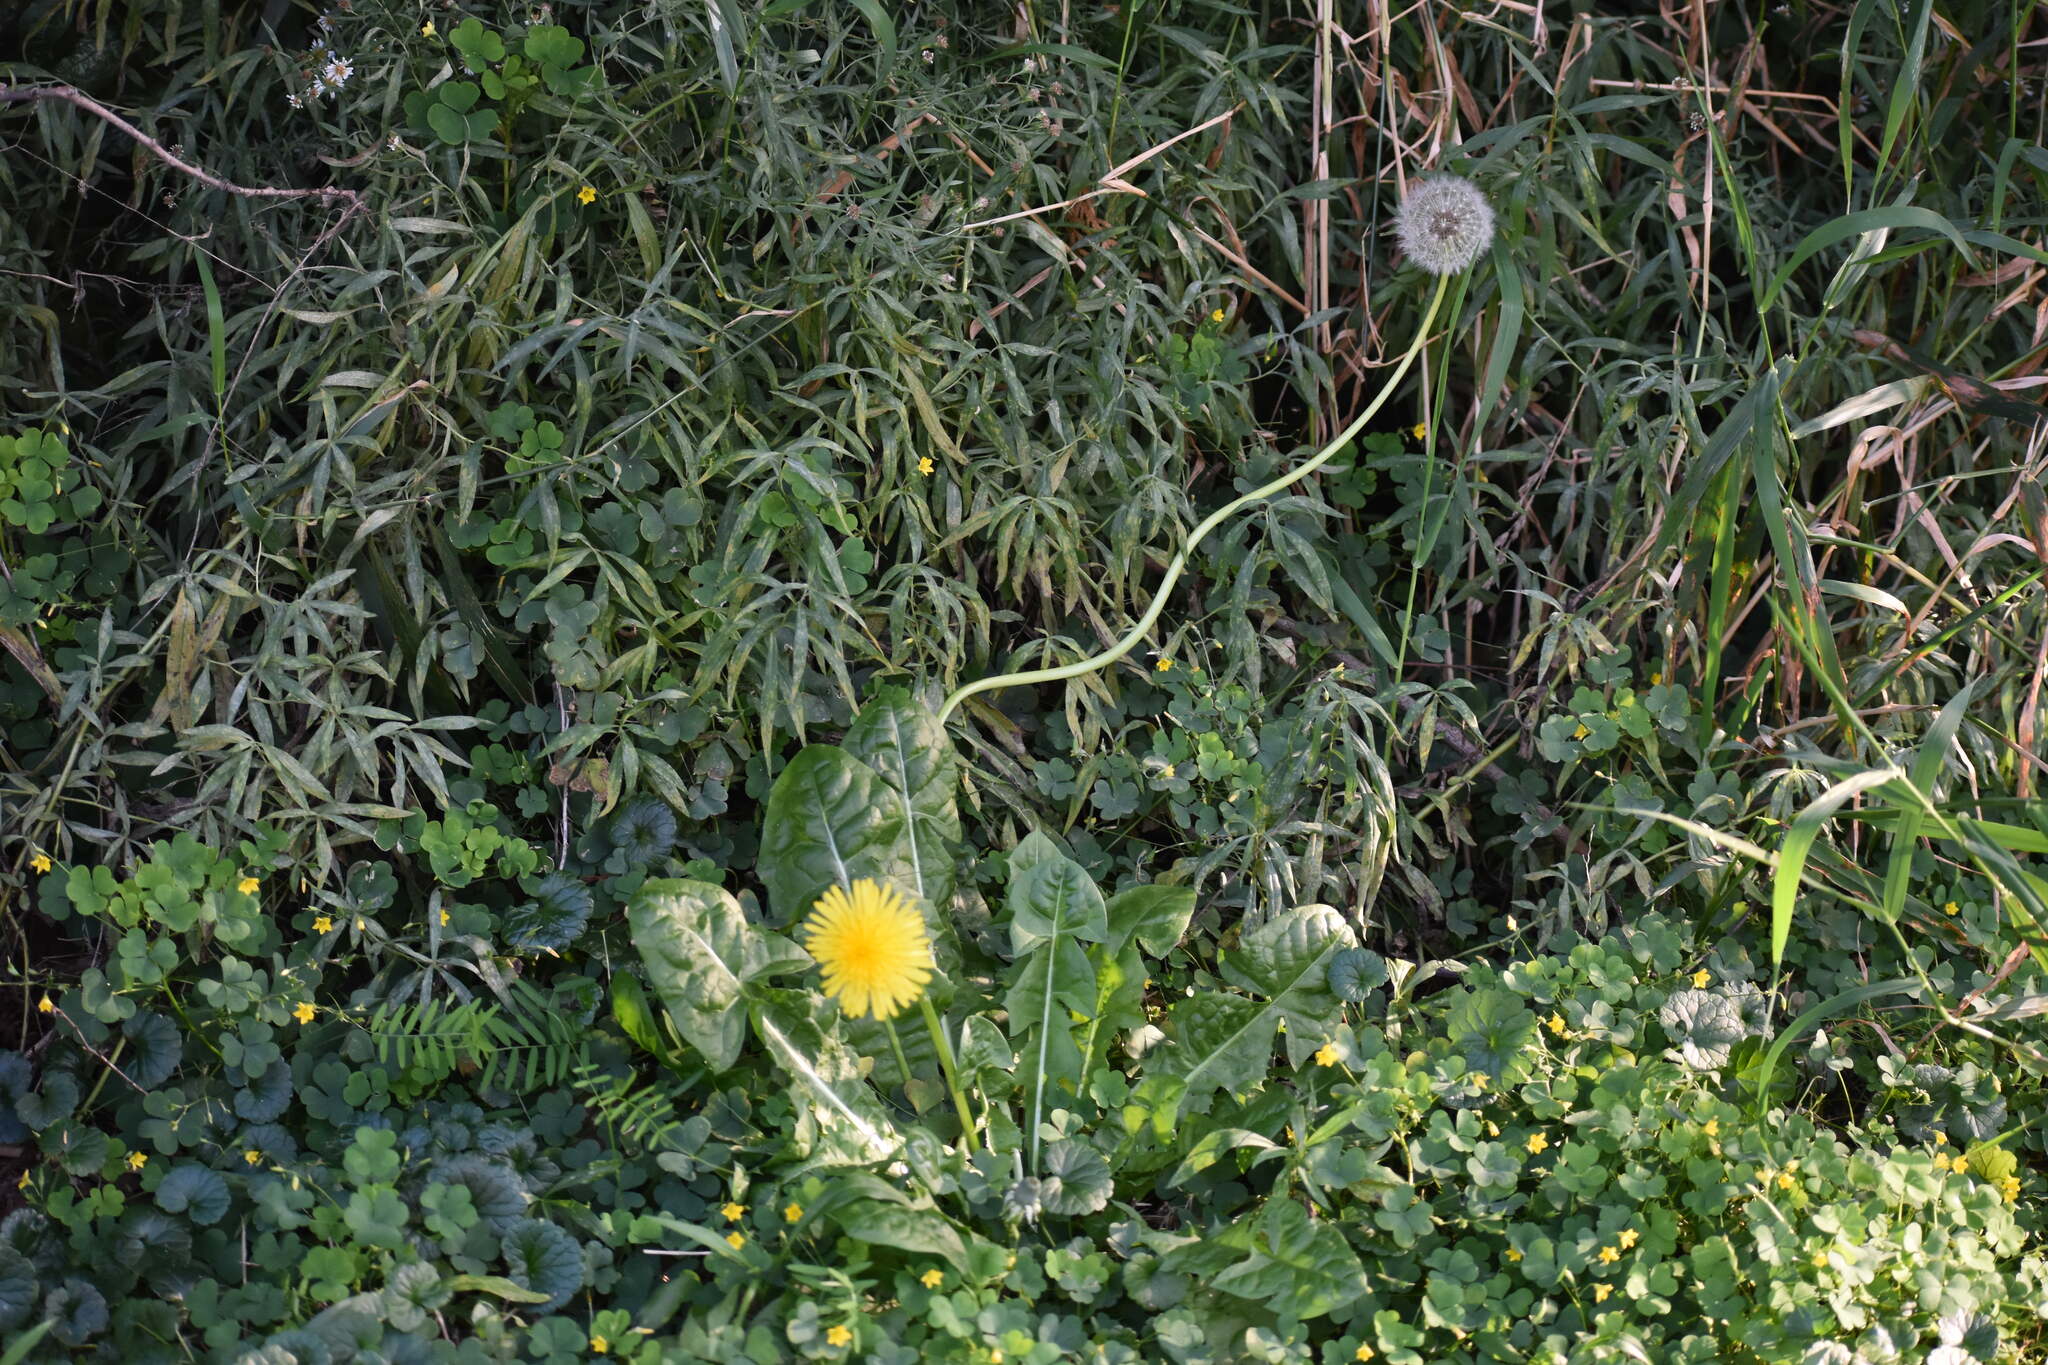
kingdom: Plantae
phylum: Tracheophyta
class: Magnoliopsida
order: Asterales
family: Asteraceae
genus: Taraxacum
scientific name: Taraxacum officinale
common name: Common dandelion
